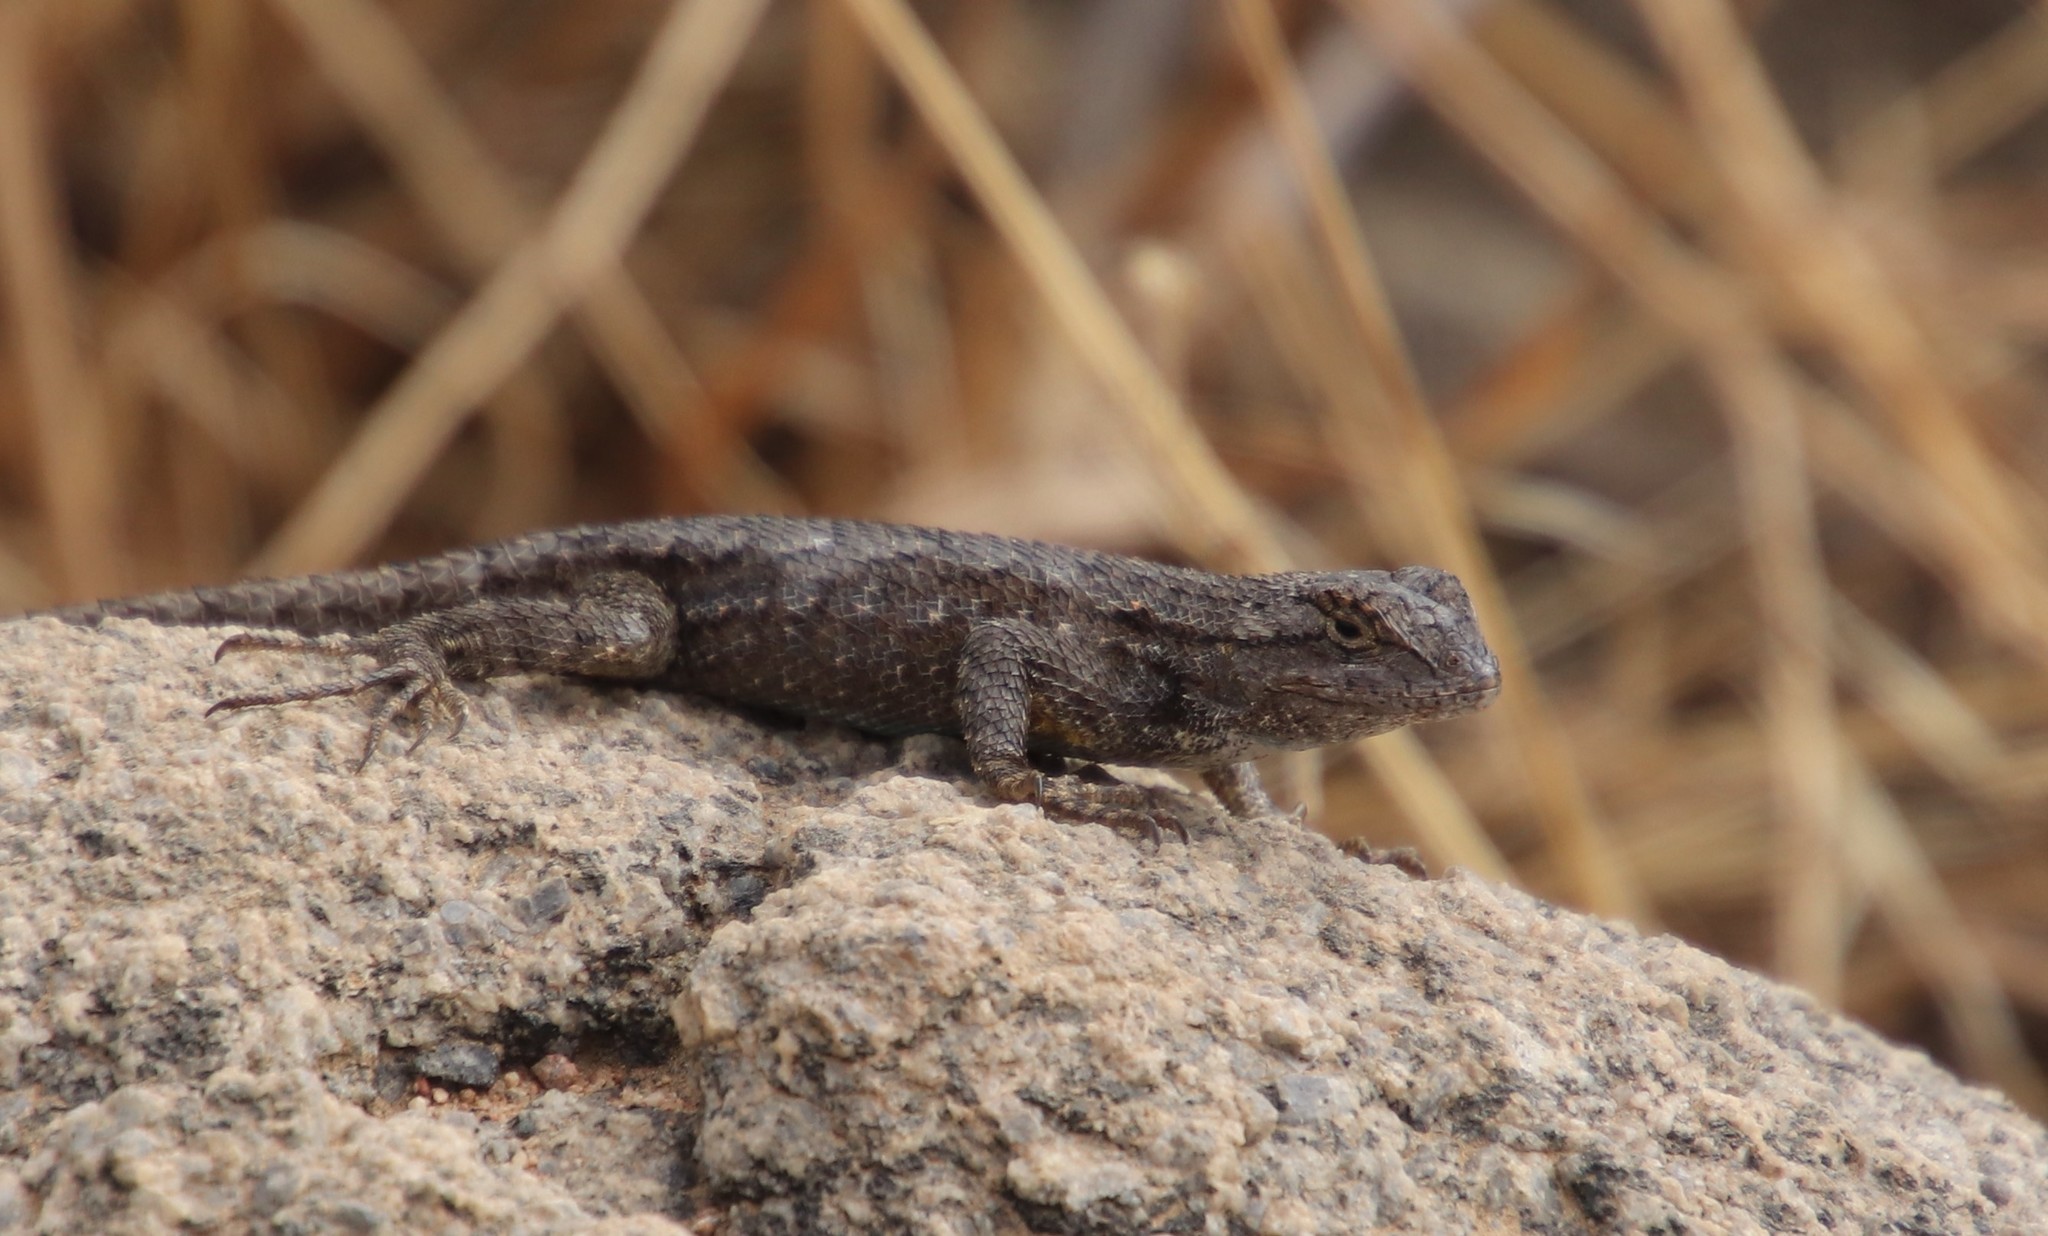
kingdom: Animalia
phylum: Chordata
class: Squamata
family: Phrynosomatidae
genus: Sceloporus
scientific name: Sceloporus occidentalis
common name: Western fence lizard
